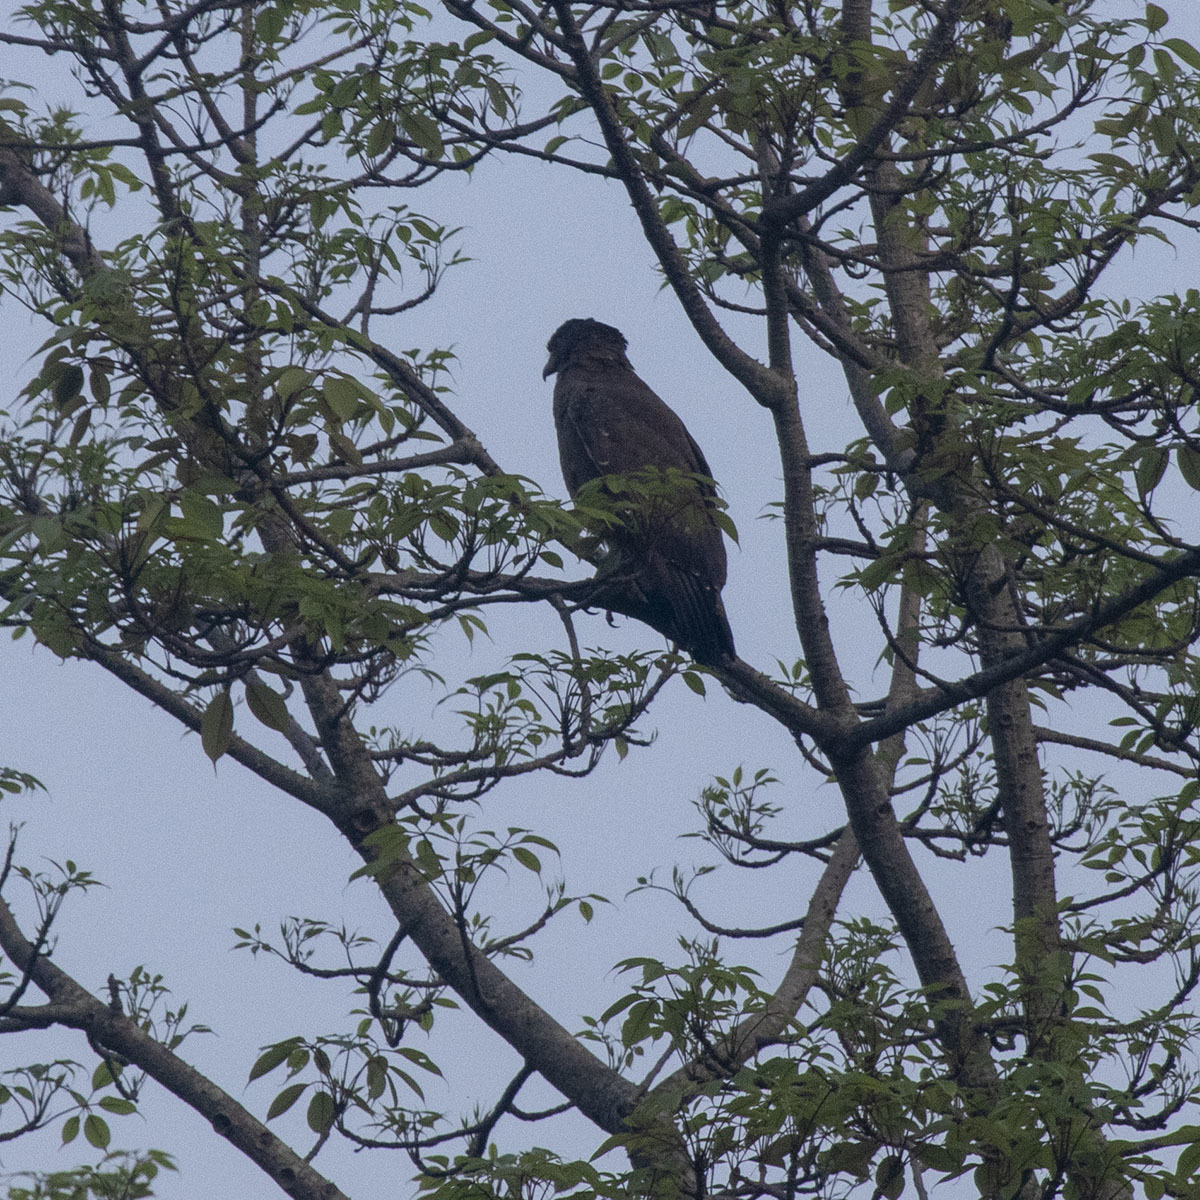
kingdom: Animalia
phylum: Chordata
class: Aves
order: Accipitriformes
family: Accipitridae
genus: Spilornis
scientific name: Spilornis cheela
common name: Crested serpent eagle
